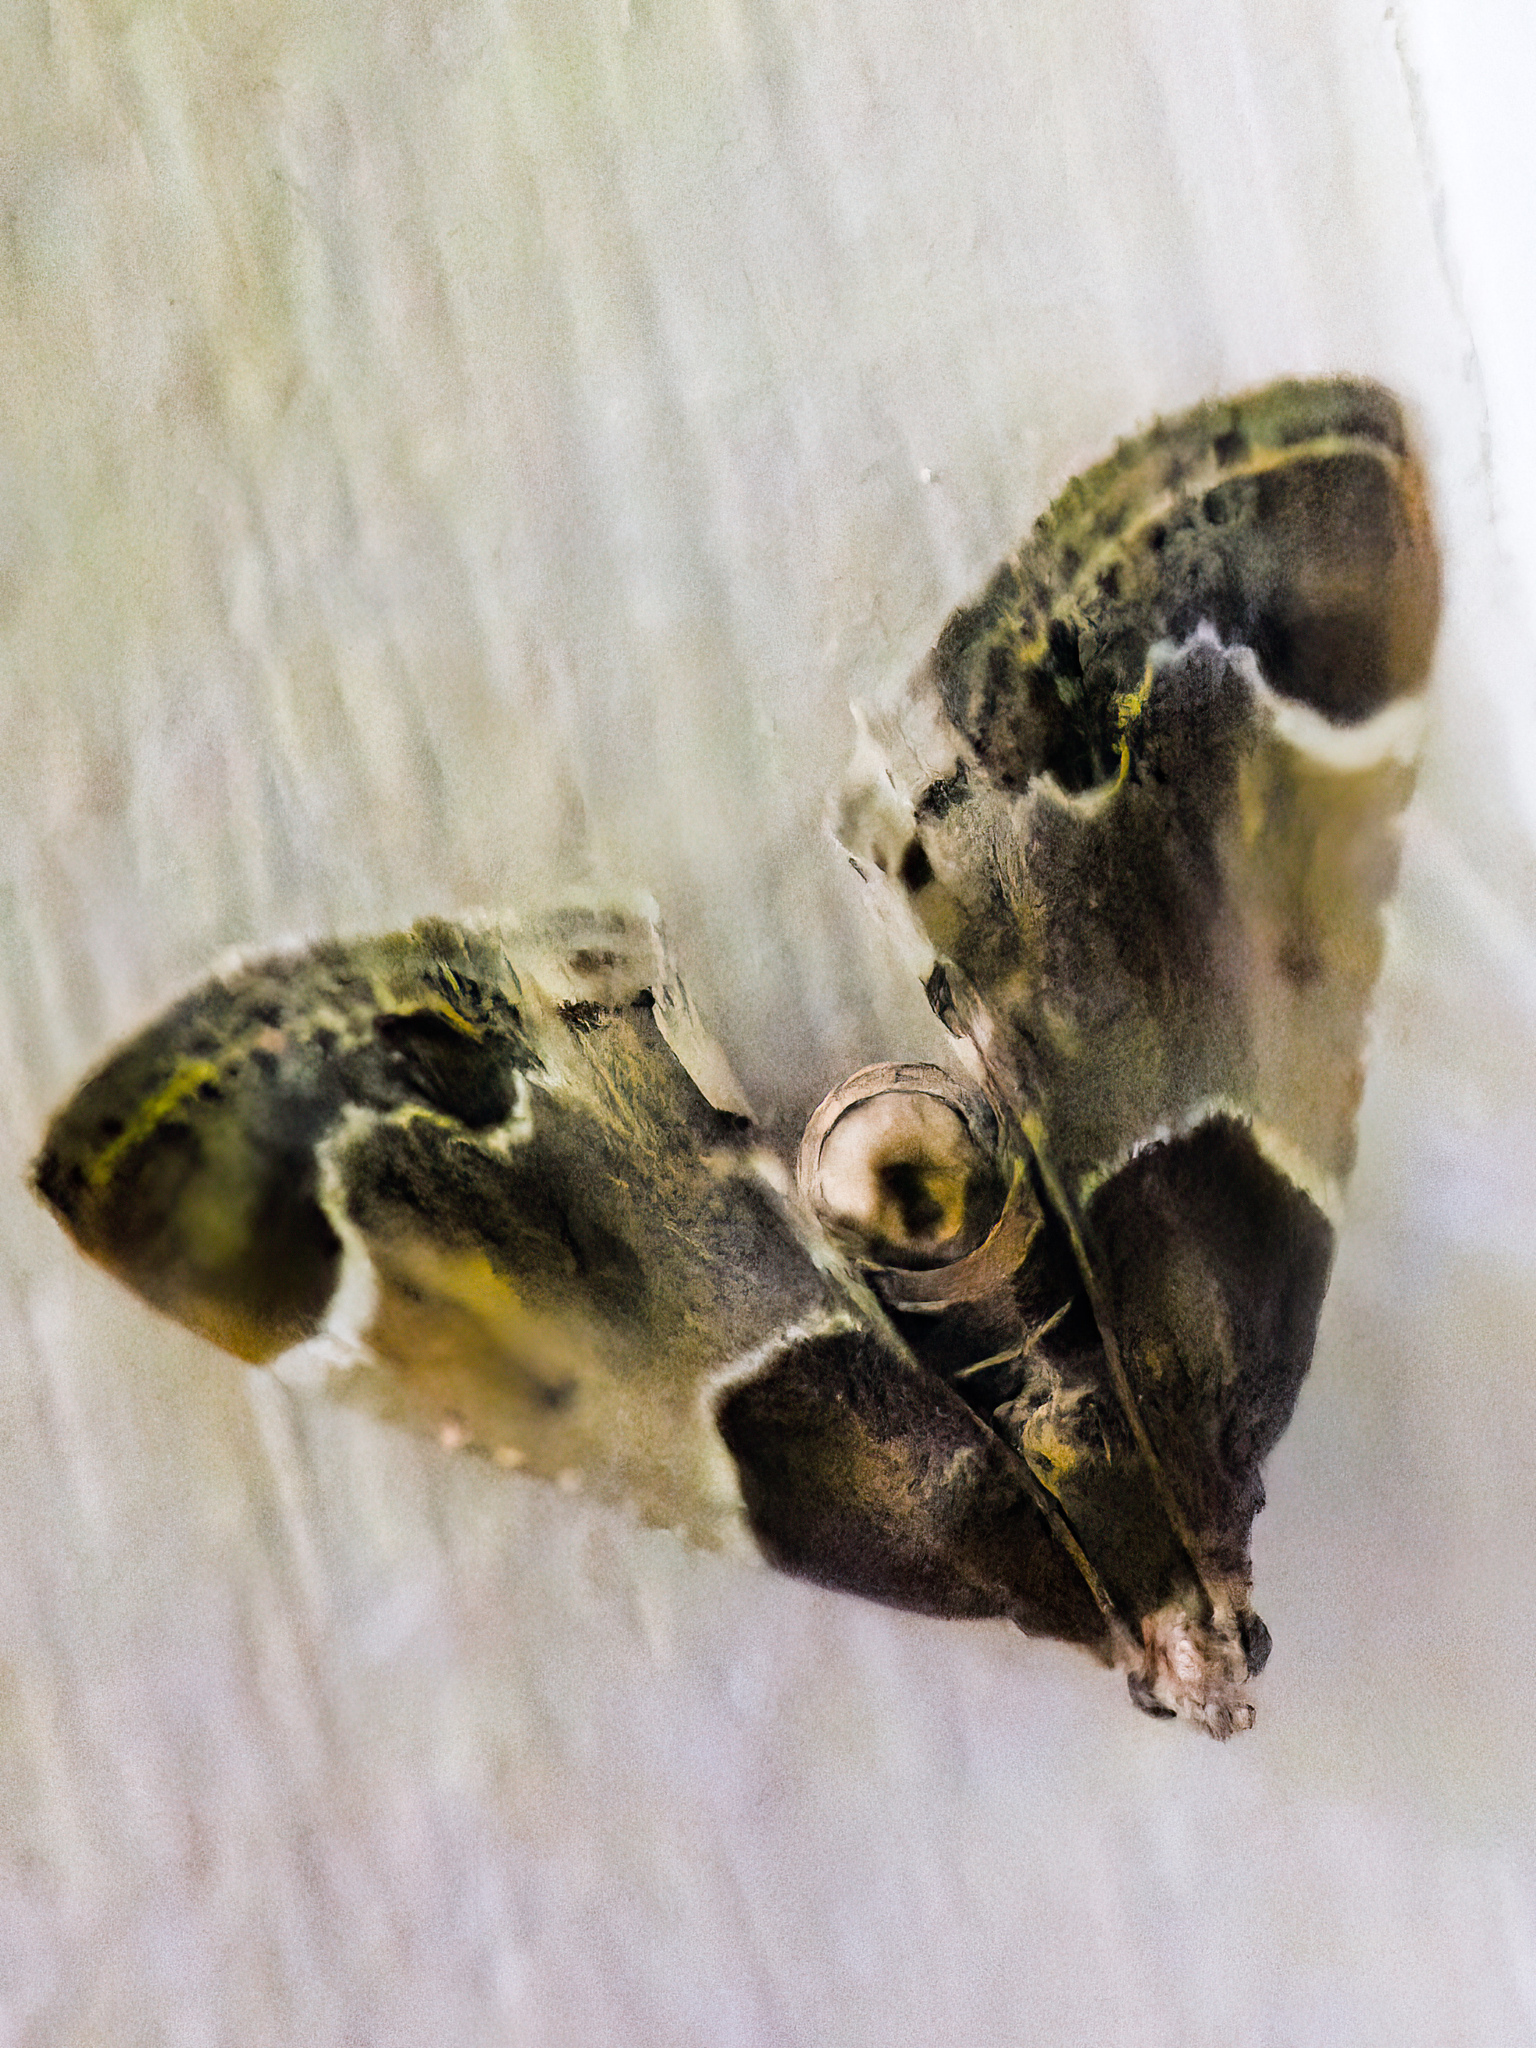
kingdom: Animalia
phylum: Arthropoda
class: Insecta
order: Lepidoptera
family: Pyralidae
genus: Pyralis
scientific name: Pyralis farinalis
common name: Meal moth
